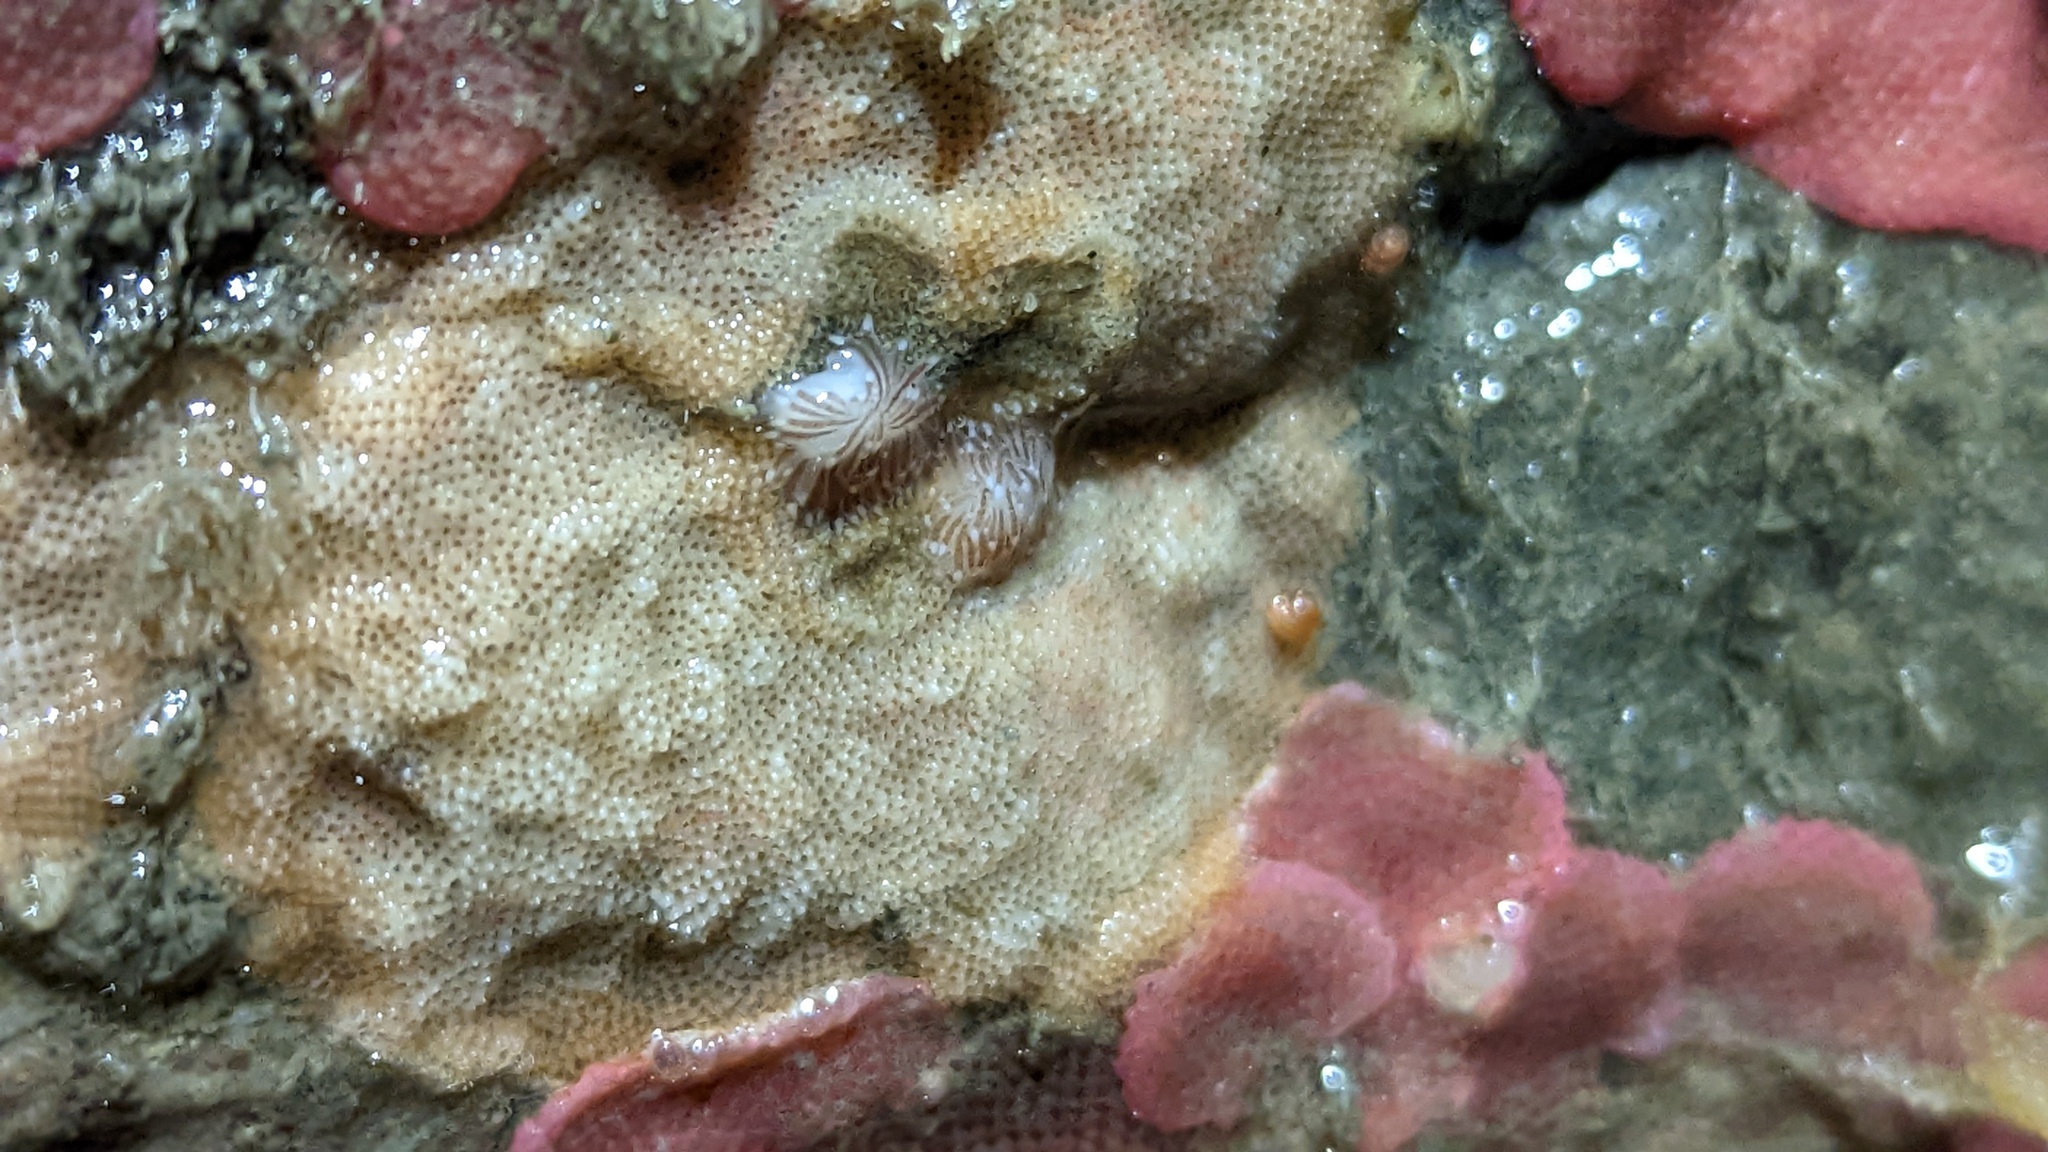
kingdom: Animalia
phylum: Mollusca
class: Gastropoda
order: Nudibranchia
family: Cuthonidae
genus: Cuthona
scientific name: Cuthona divae
